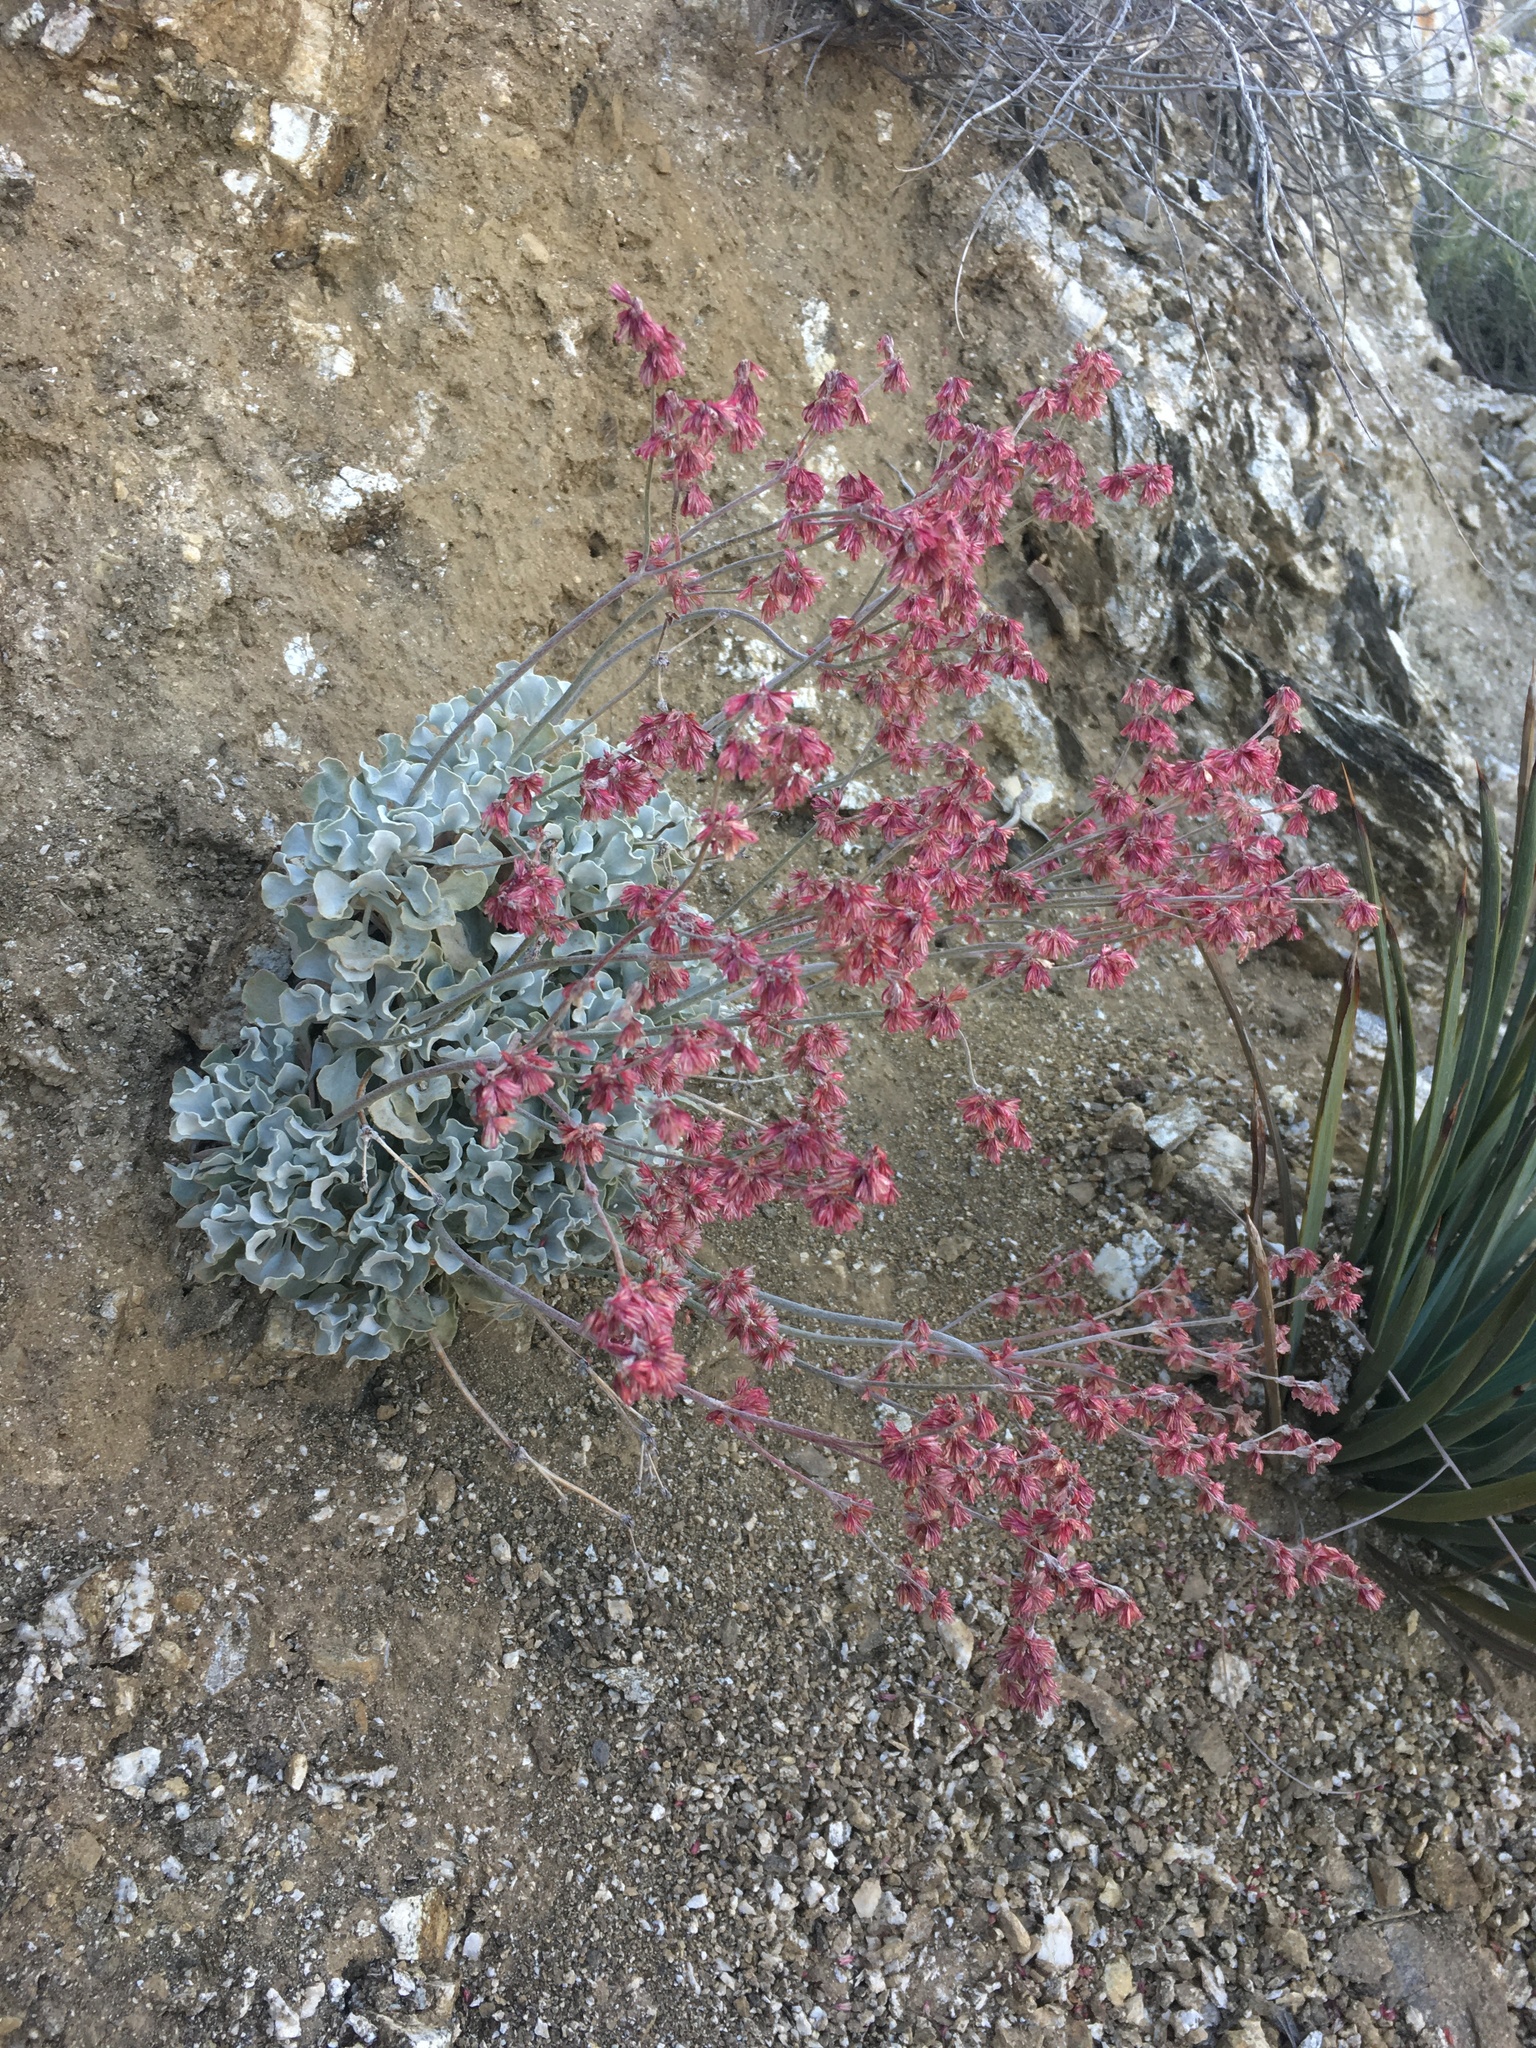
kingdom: Plantae
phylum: Tracheophyta
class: Magnoliopsida
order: Caryophyllales
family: Polygonaceae
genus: Eriogonum
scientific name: Eriogonum saxatile
